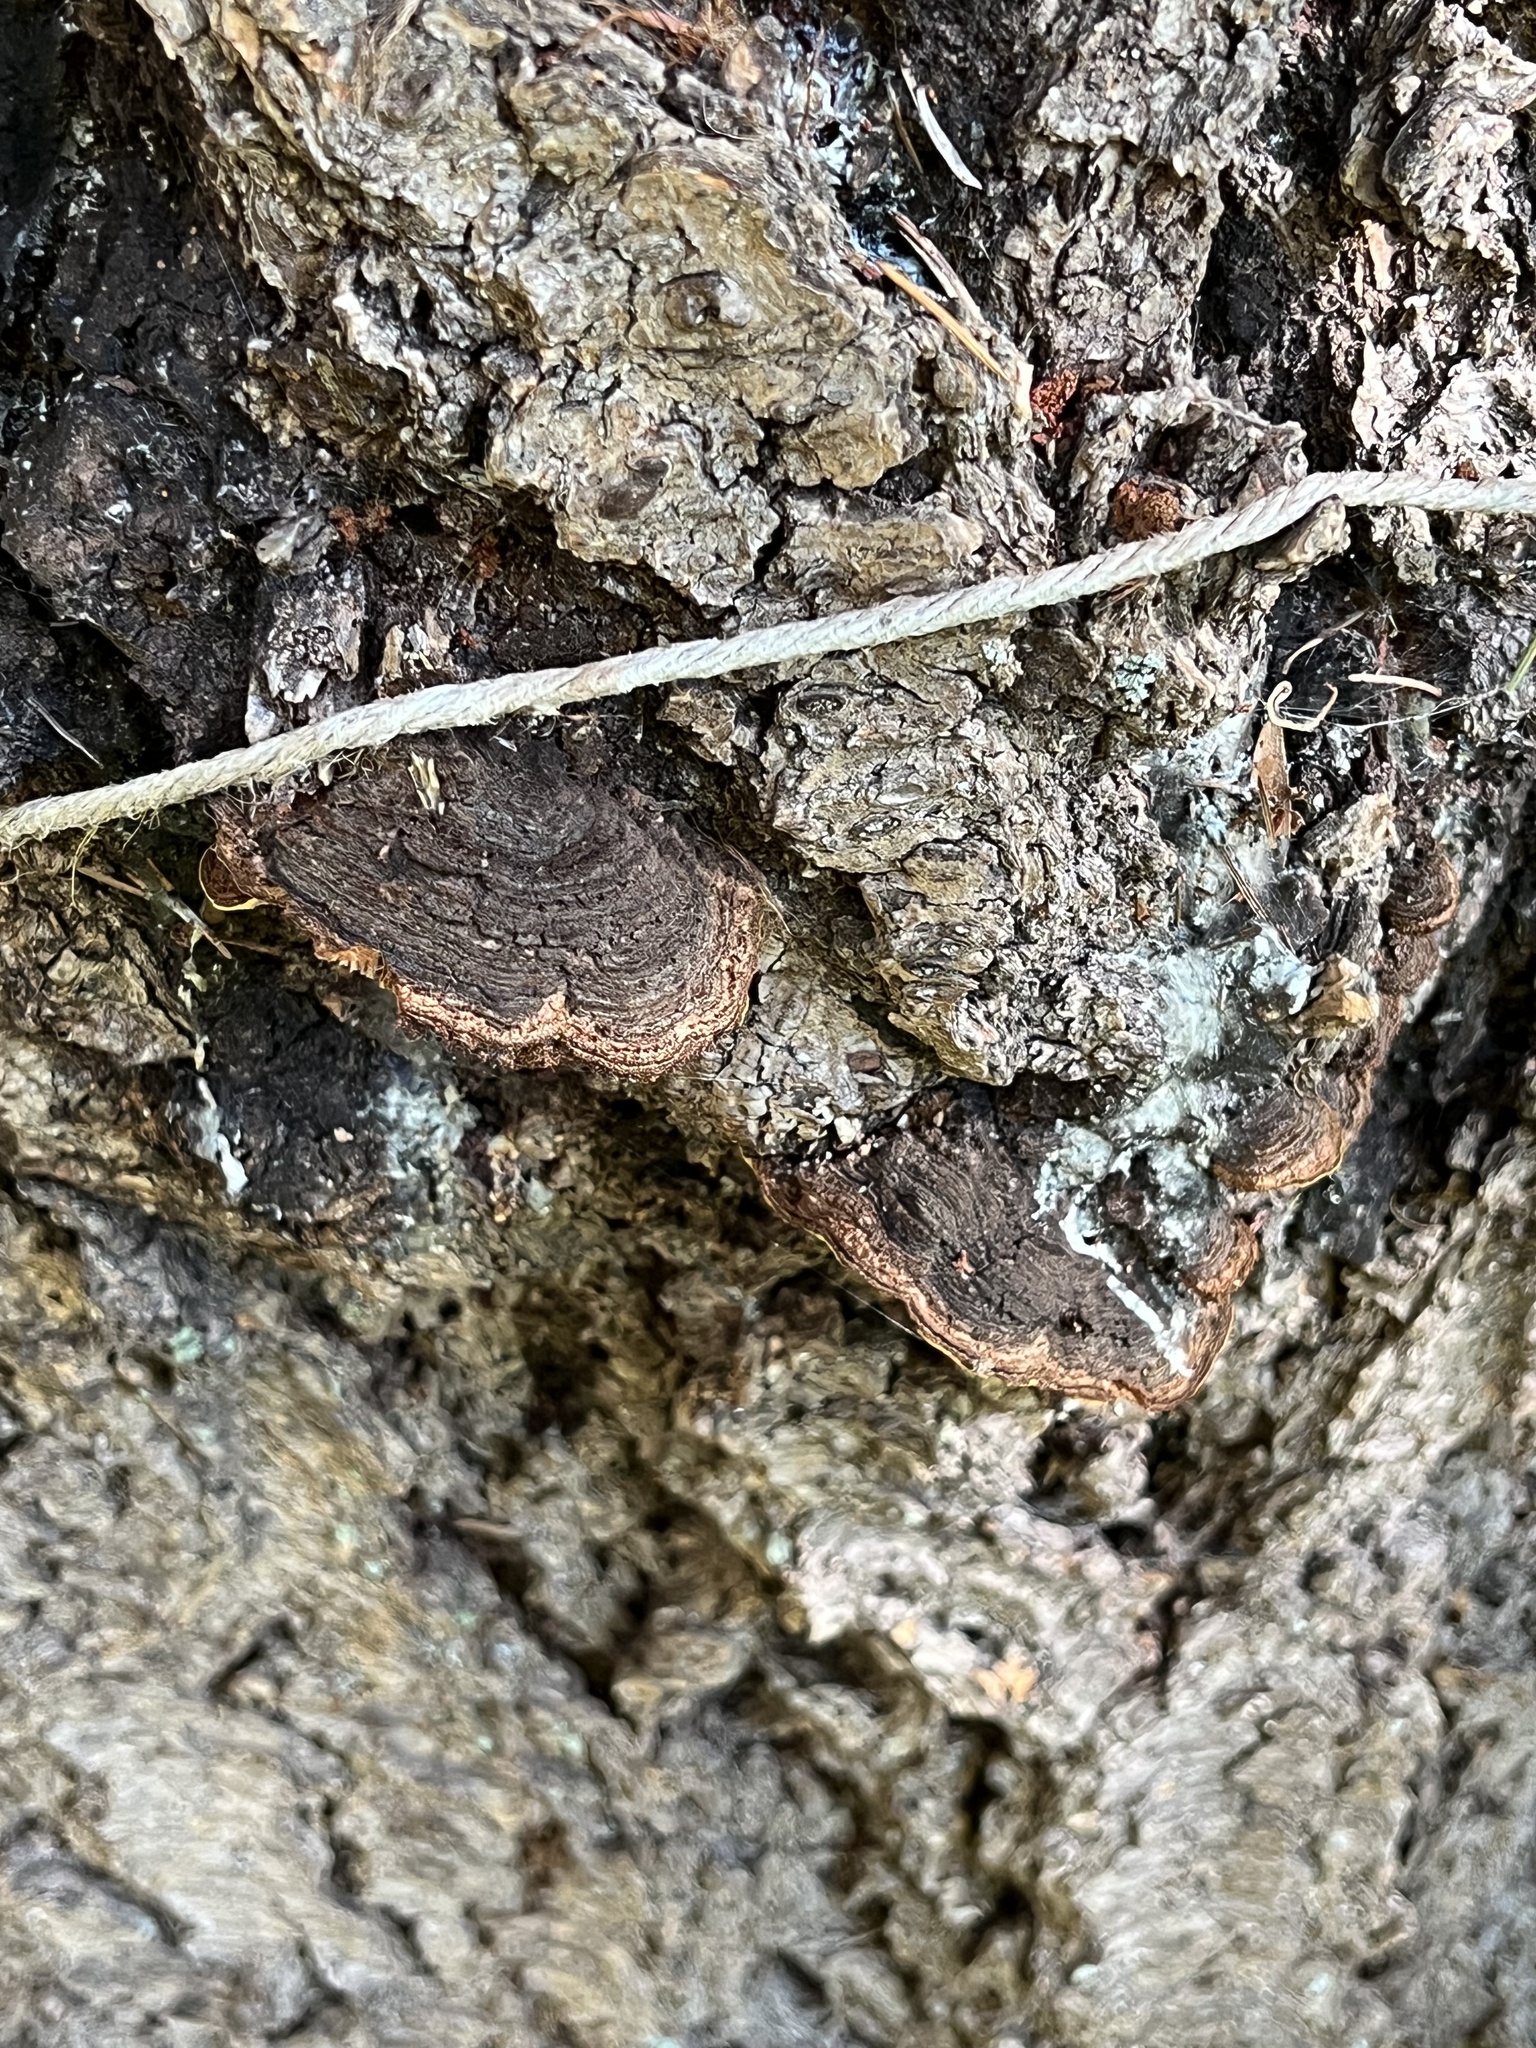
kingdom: Fungi
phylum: Basidiomycota
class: Agaricomycetes
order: Hymenochaetales
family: Hymenochaetaceae
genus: Porodaedalea
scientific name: Porodaedalea pini
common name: Pine bracket
